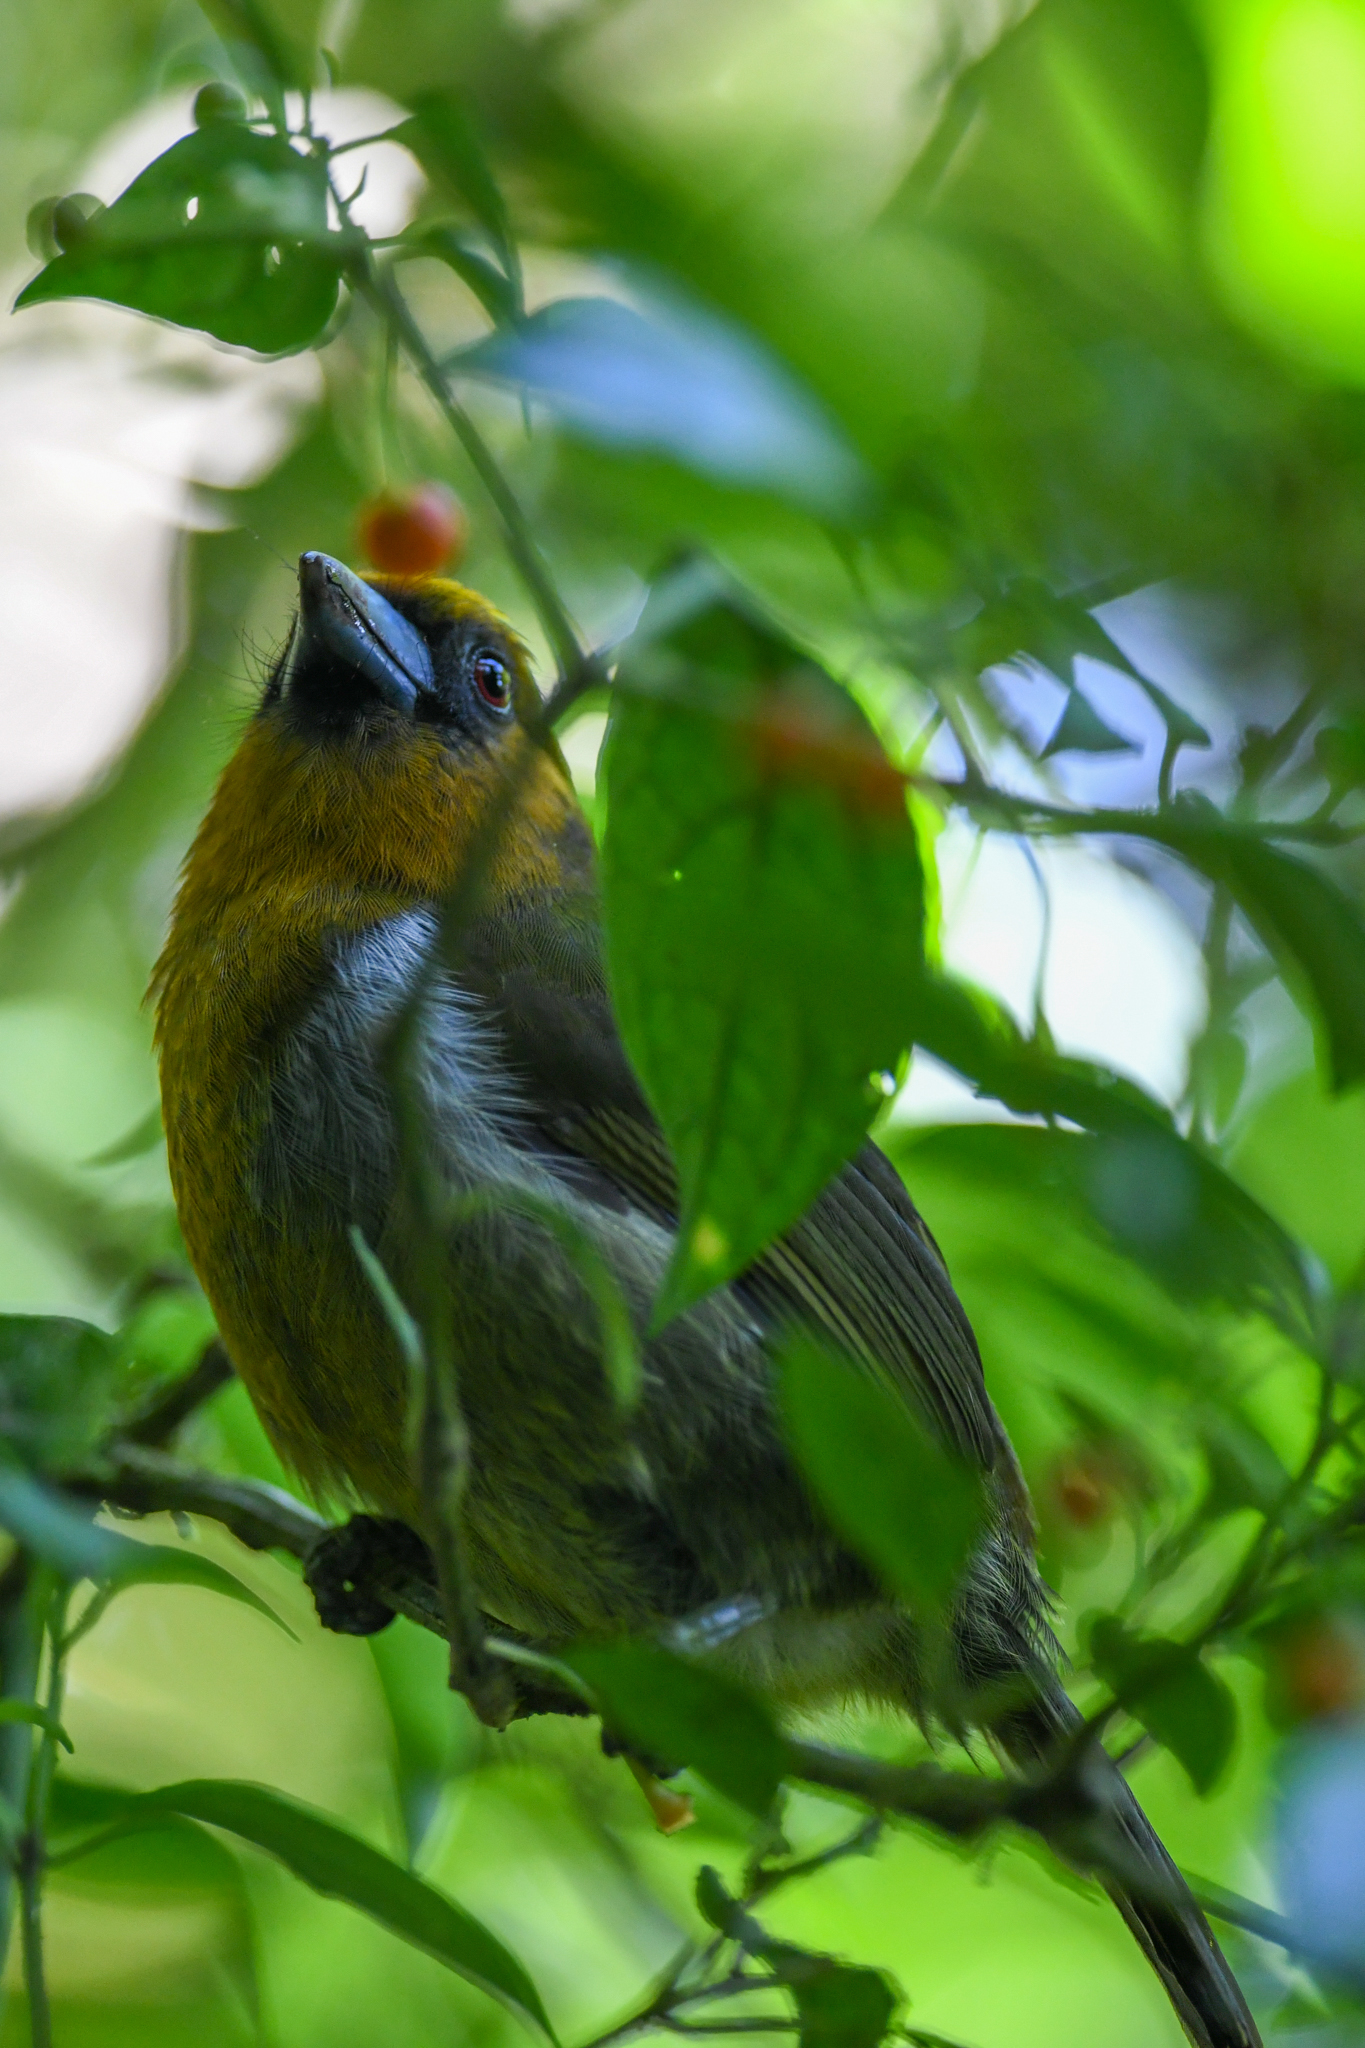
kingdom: Animalia
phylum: Chordata
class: Aves
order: Piciformes
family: Semnornithidae
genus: Semnornis
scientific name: Semnornis frantzii
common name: Prong-billed barbet
